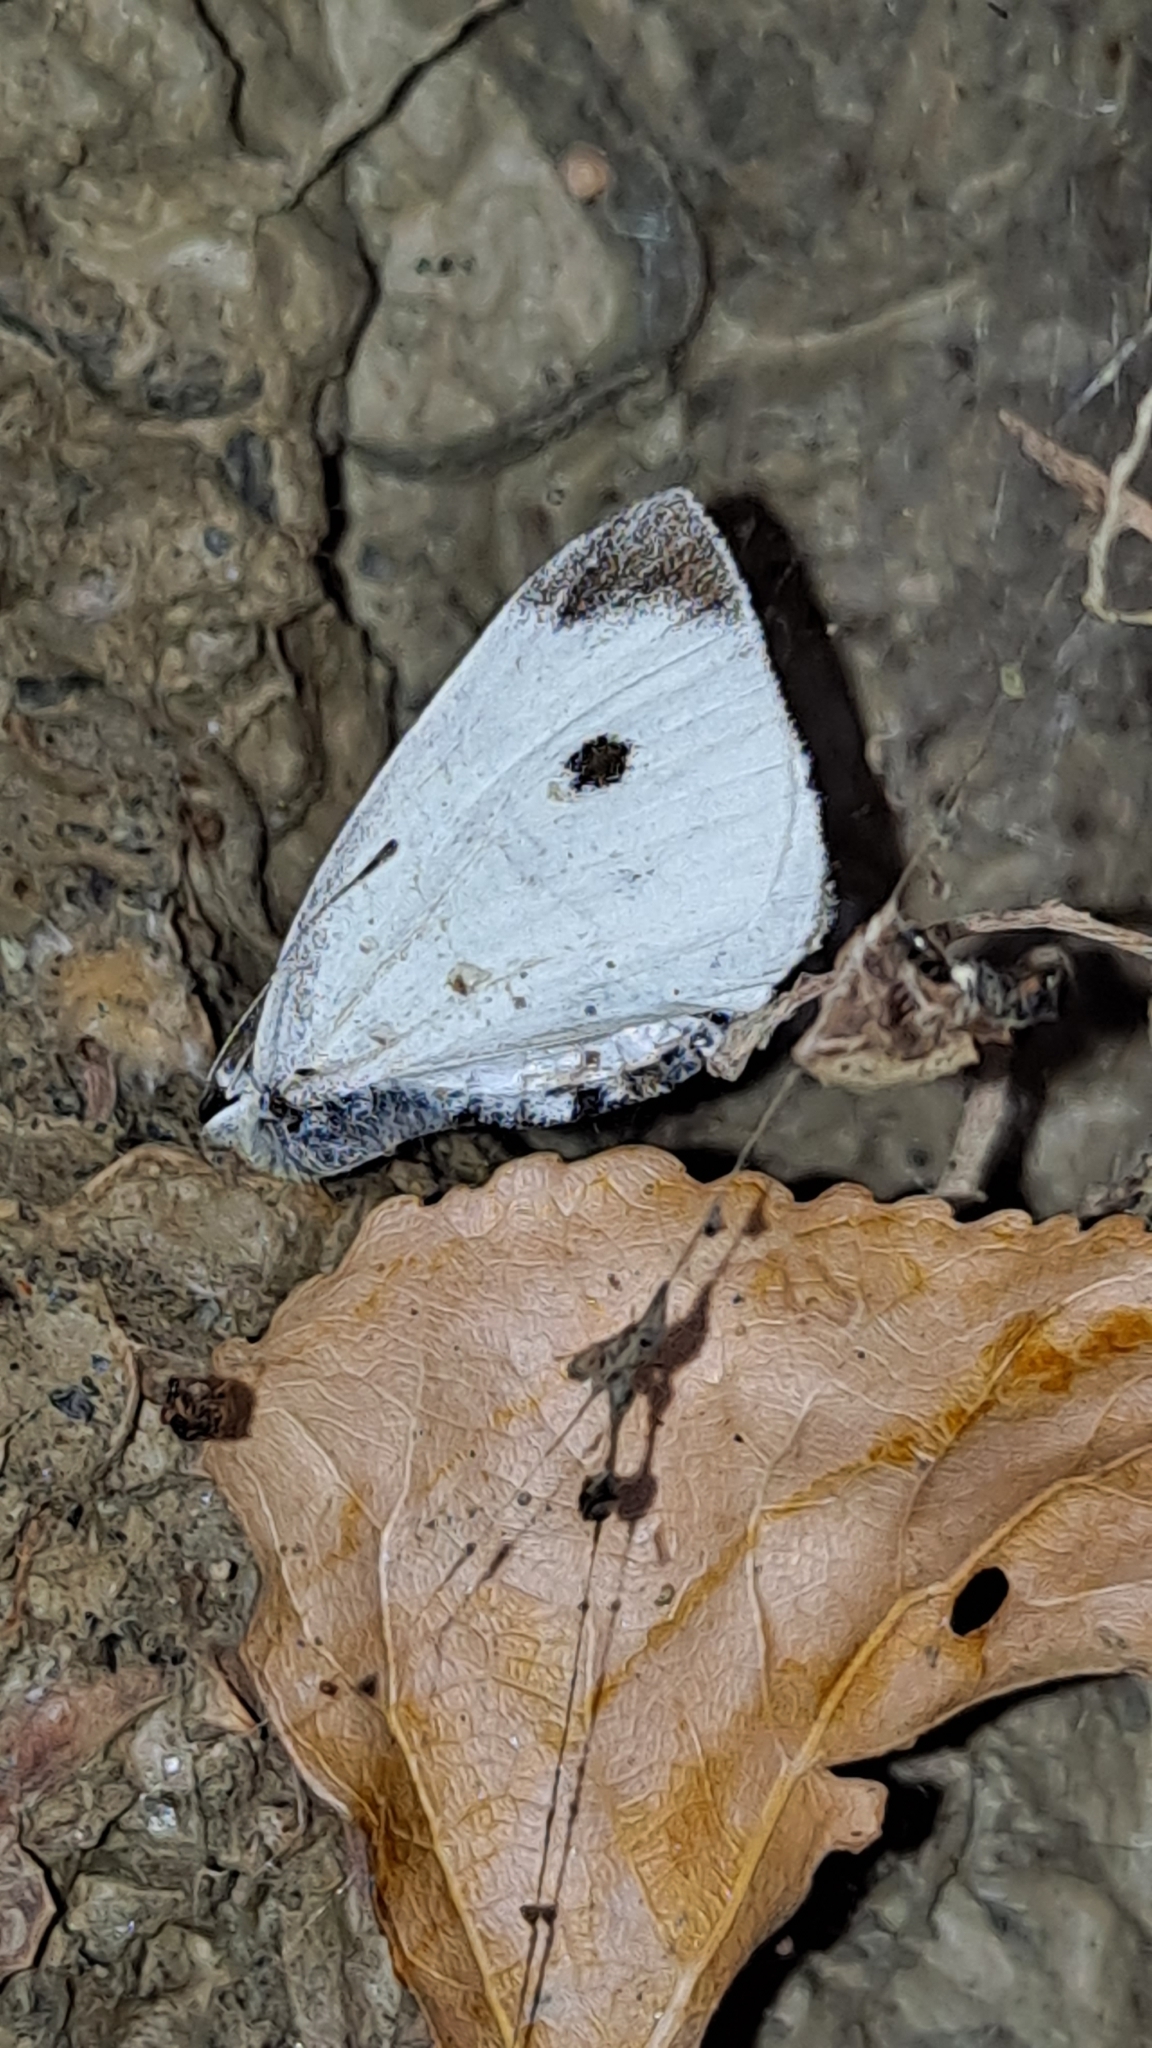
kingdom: Animalia
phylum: Arthropoda
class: Insecta
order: Lepidoptera
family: Pieridae
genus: Pieris
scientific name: Pieris rapae
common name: Small white
